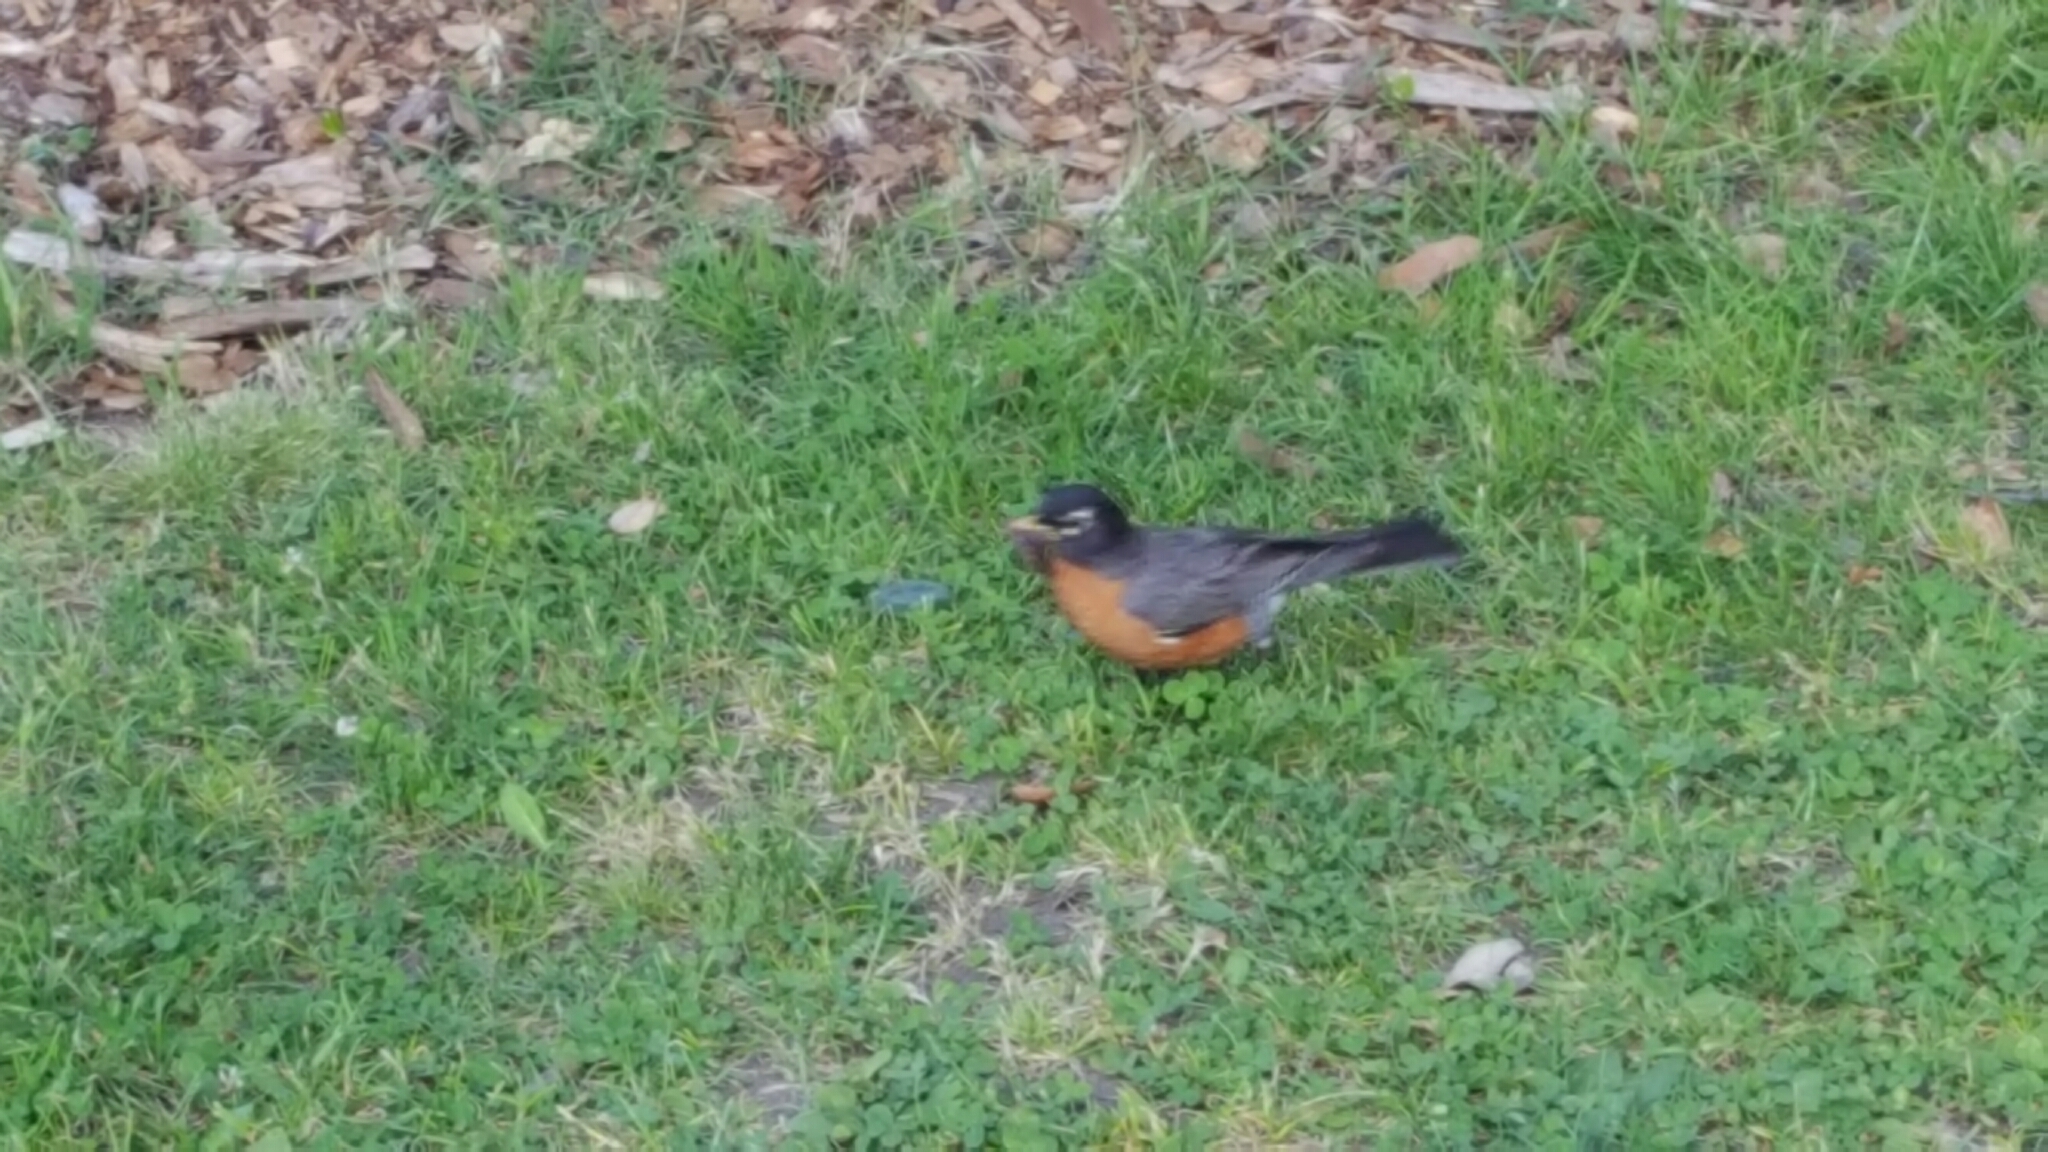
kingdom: Animalia
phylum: Chordata
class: Aves
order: Passeriformes
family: Turdidae
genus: Turdus
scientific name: Turdus migratorius
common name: American robin
